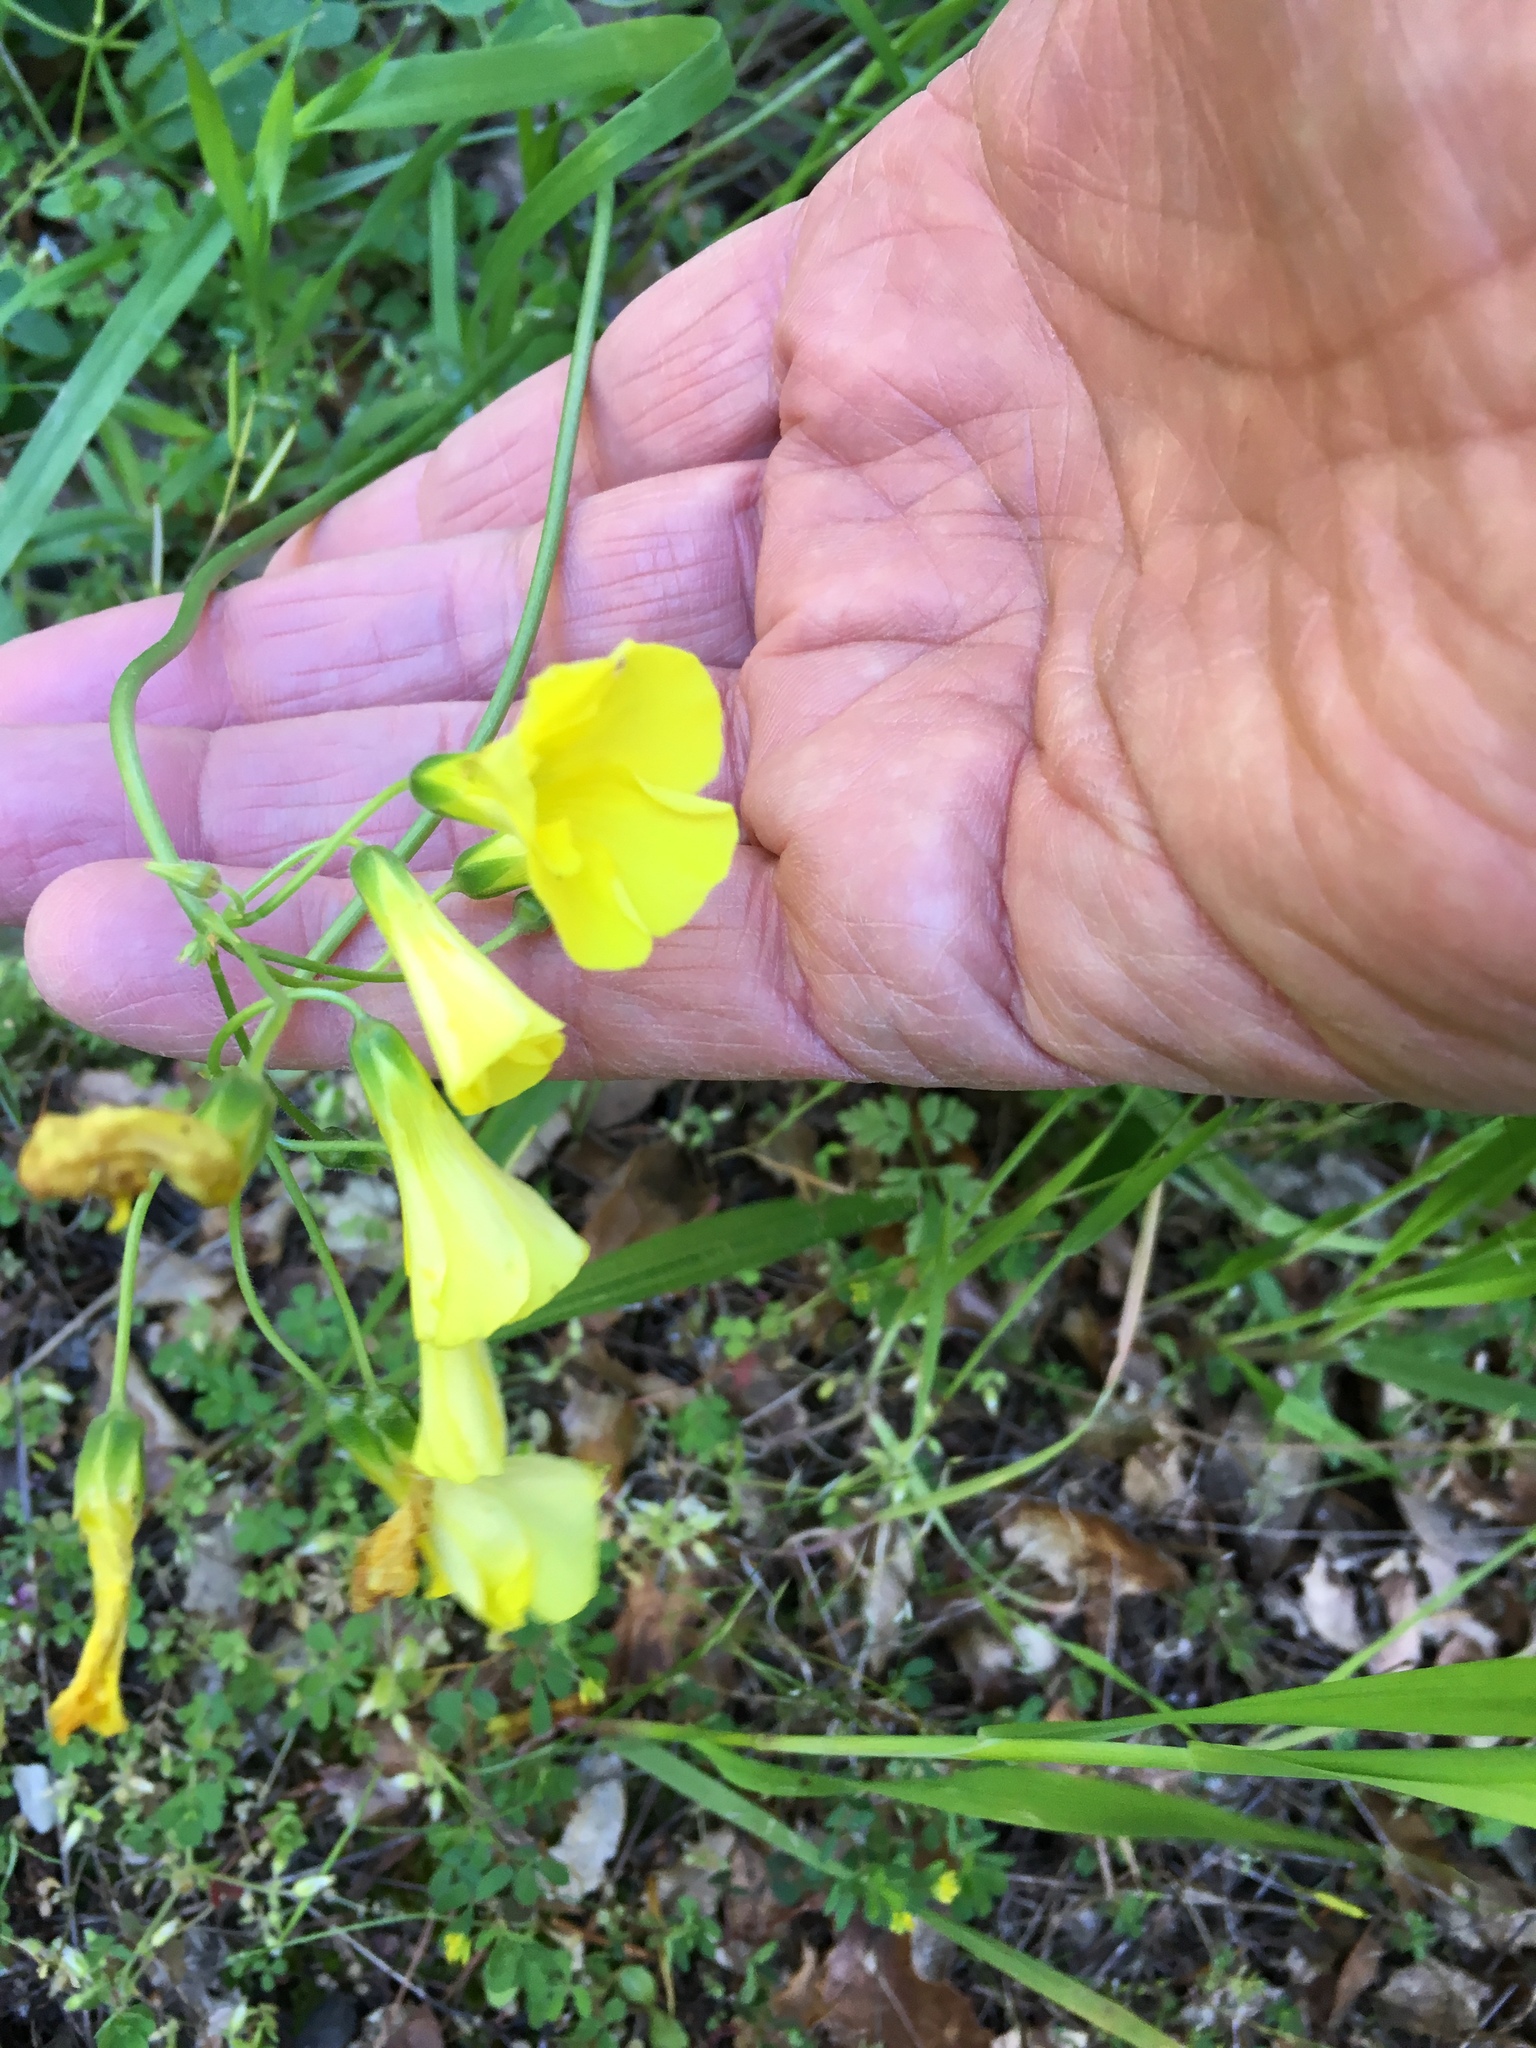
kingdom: Plantae
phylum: Tracheophyta
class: Magnoliopsida
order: Oxalidales
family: Oxalidaceae
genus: Oxalis
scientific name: Oxalis pes-caprae
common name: Bermuda-buttercup
